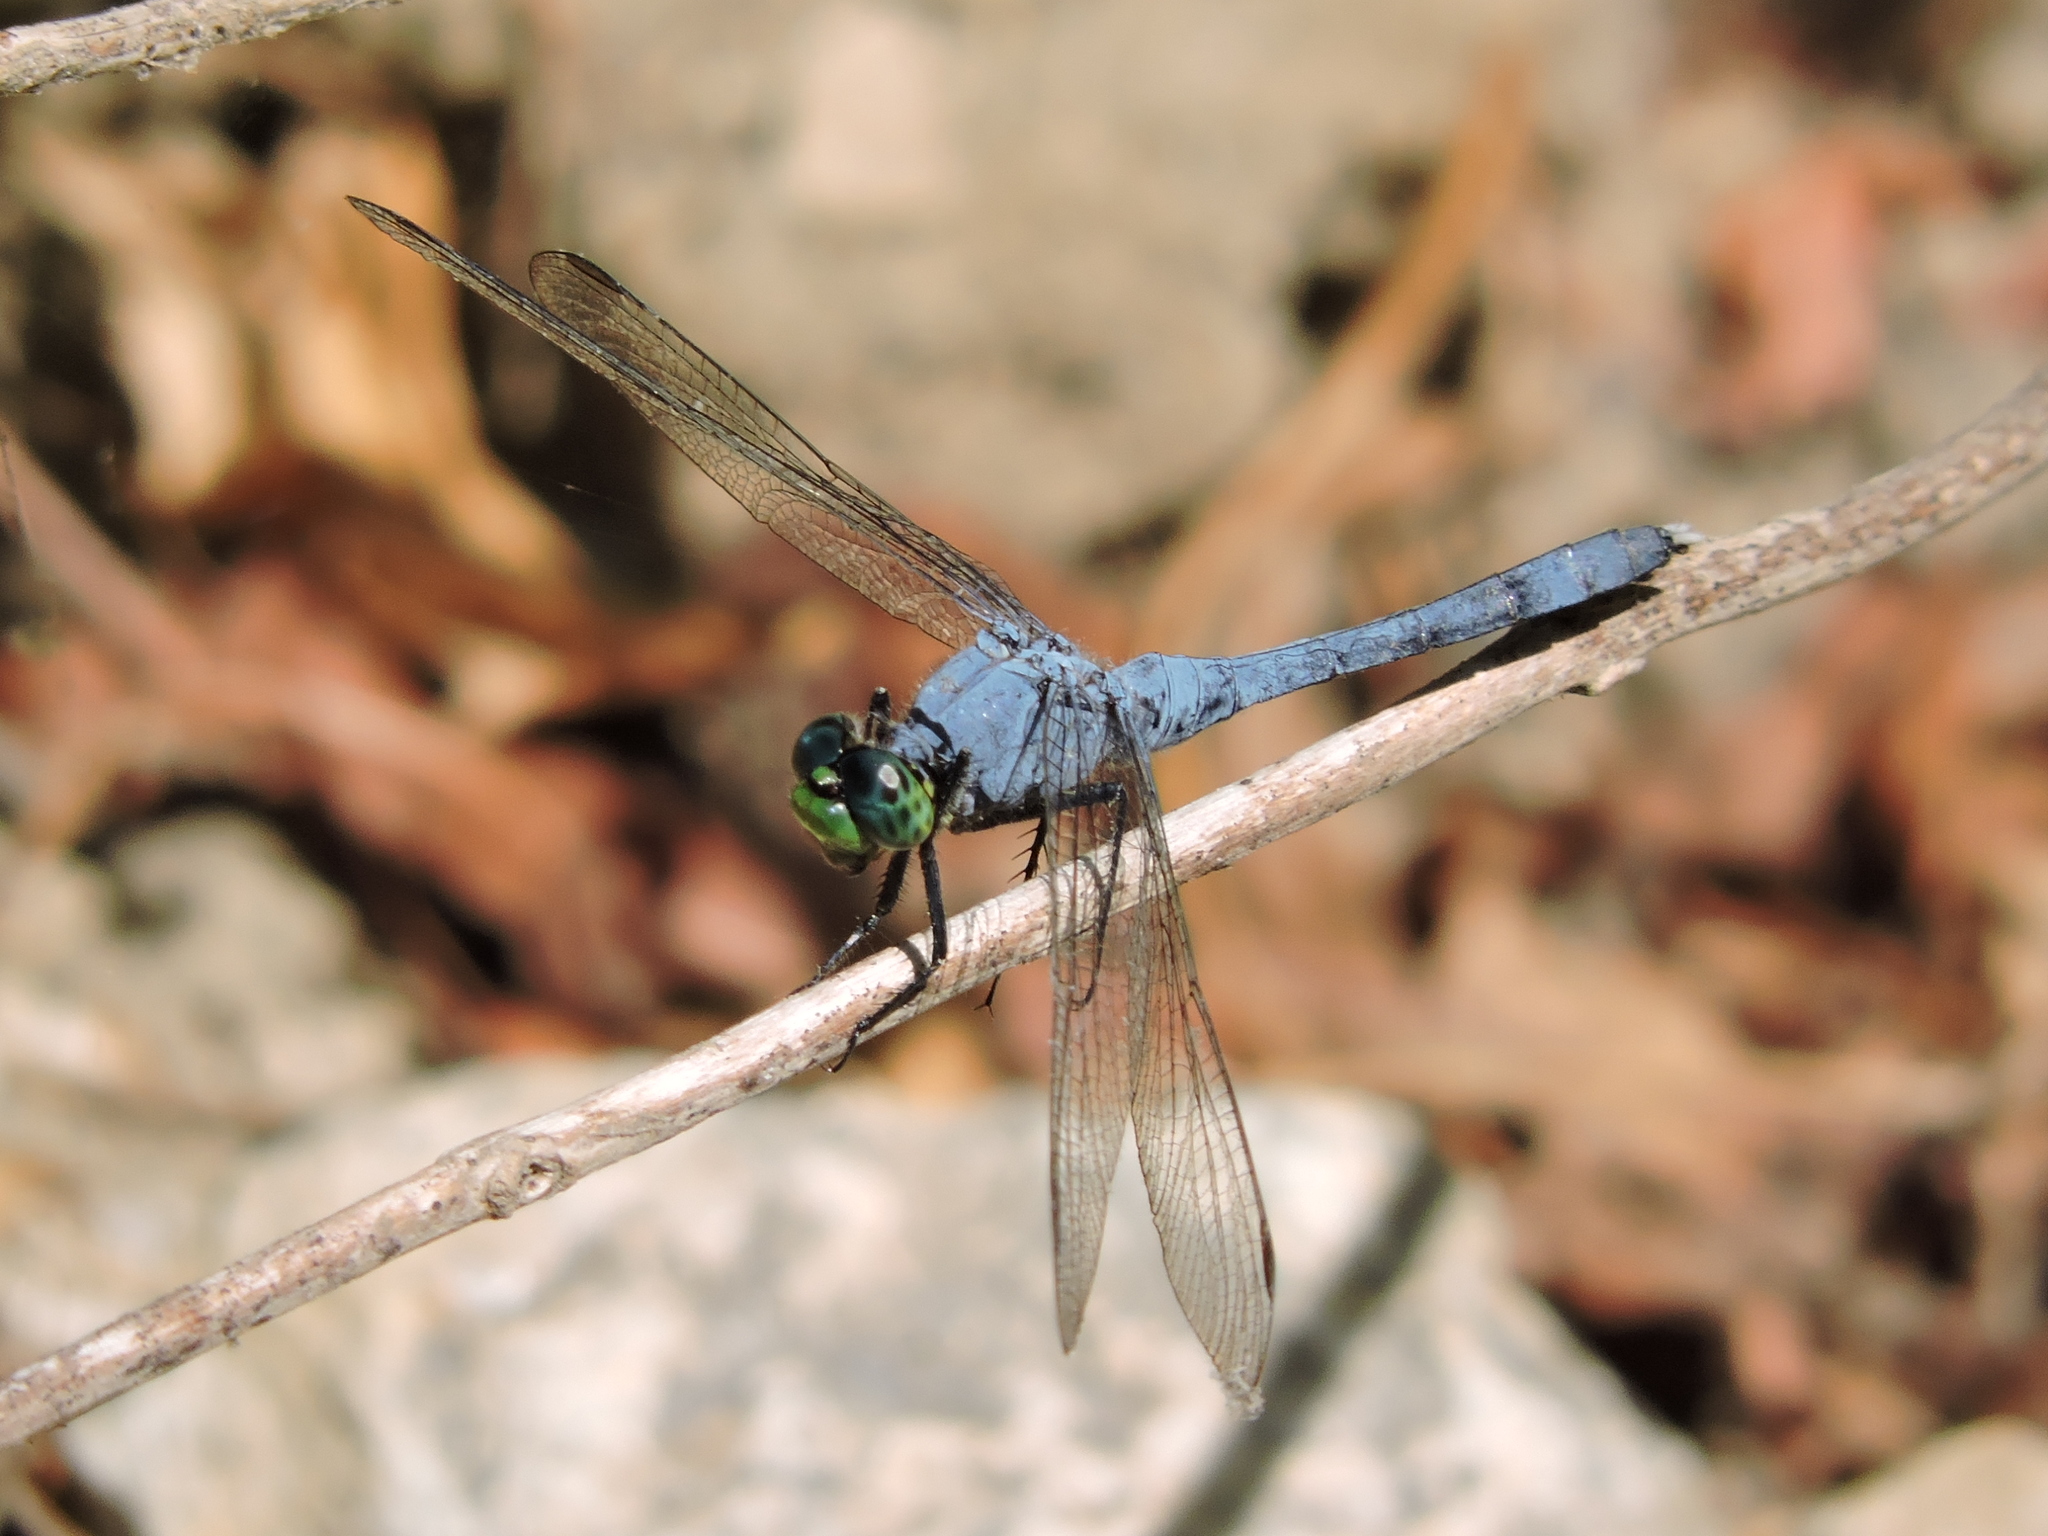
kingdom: Animalia
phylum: Arthropoda
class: Insecta
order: Odonata
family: Libellulidae
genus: Erythemis
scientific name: Erythemis simplicicollis
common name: Eastern pondhawk
